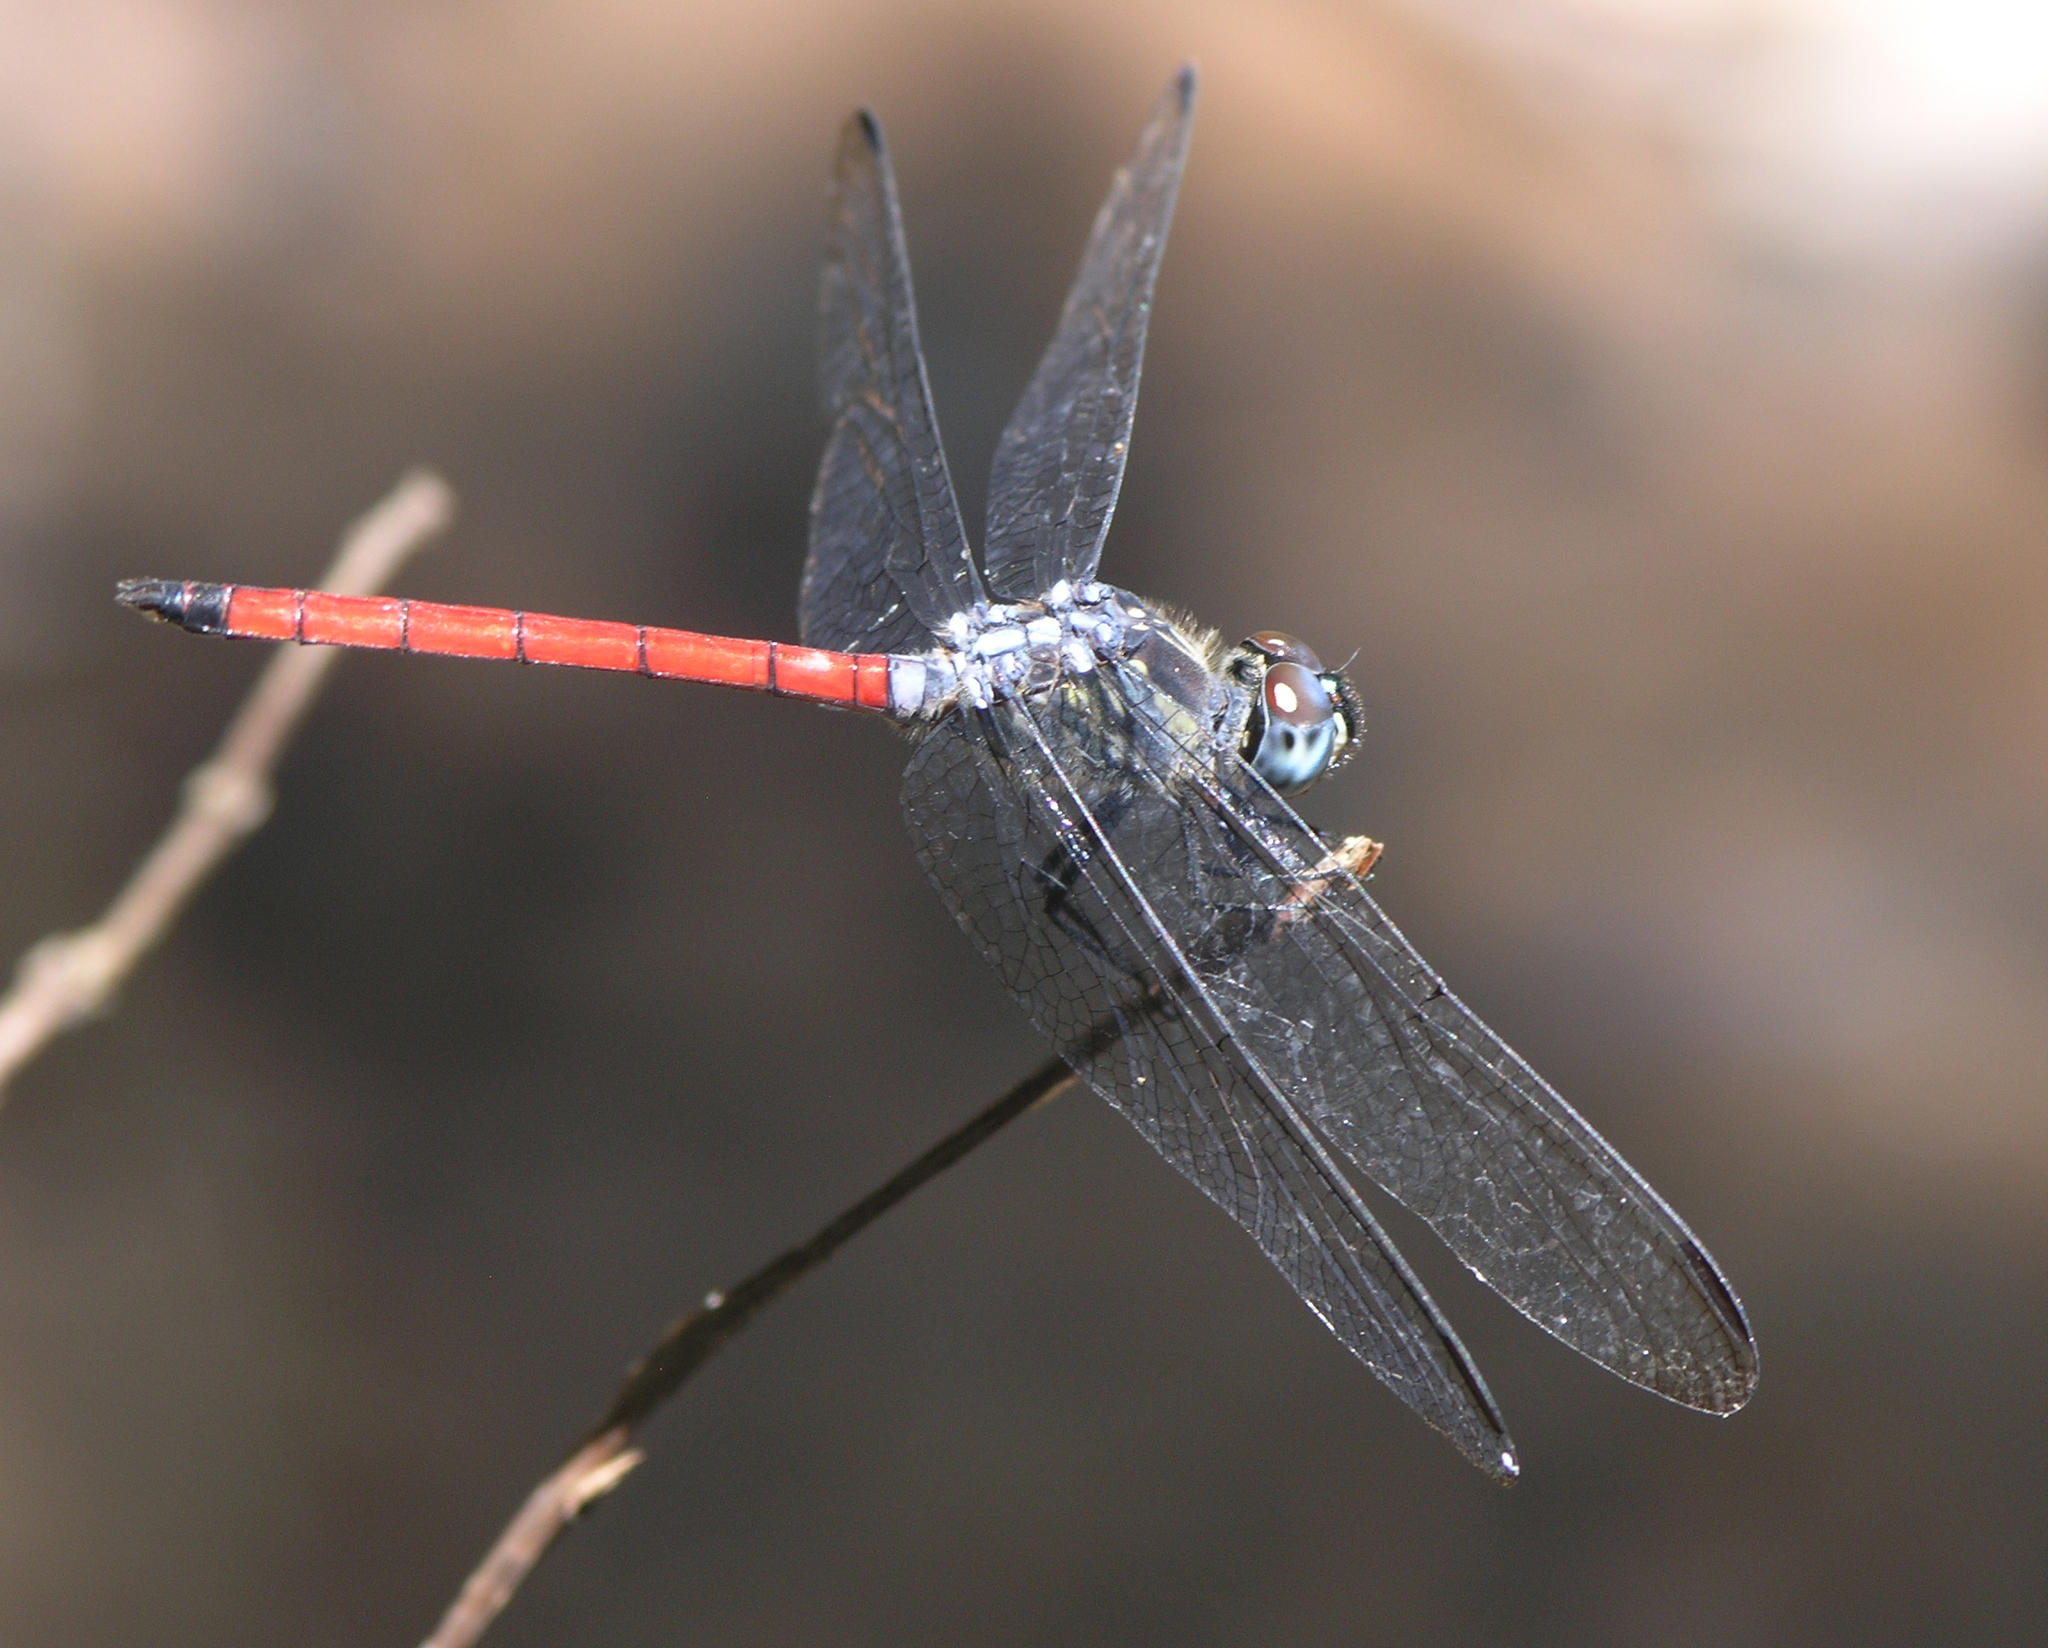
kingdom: Animalia
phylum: Arthropoda
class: Insecta
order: Odonata
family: Libellulidae
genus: Lathrecista
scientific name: Lathrecista asiatica
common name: Scarlet grenadier
